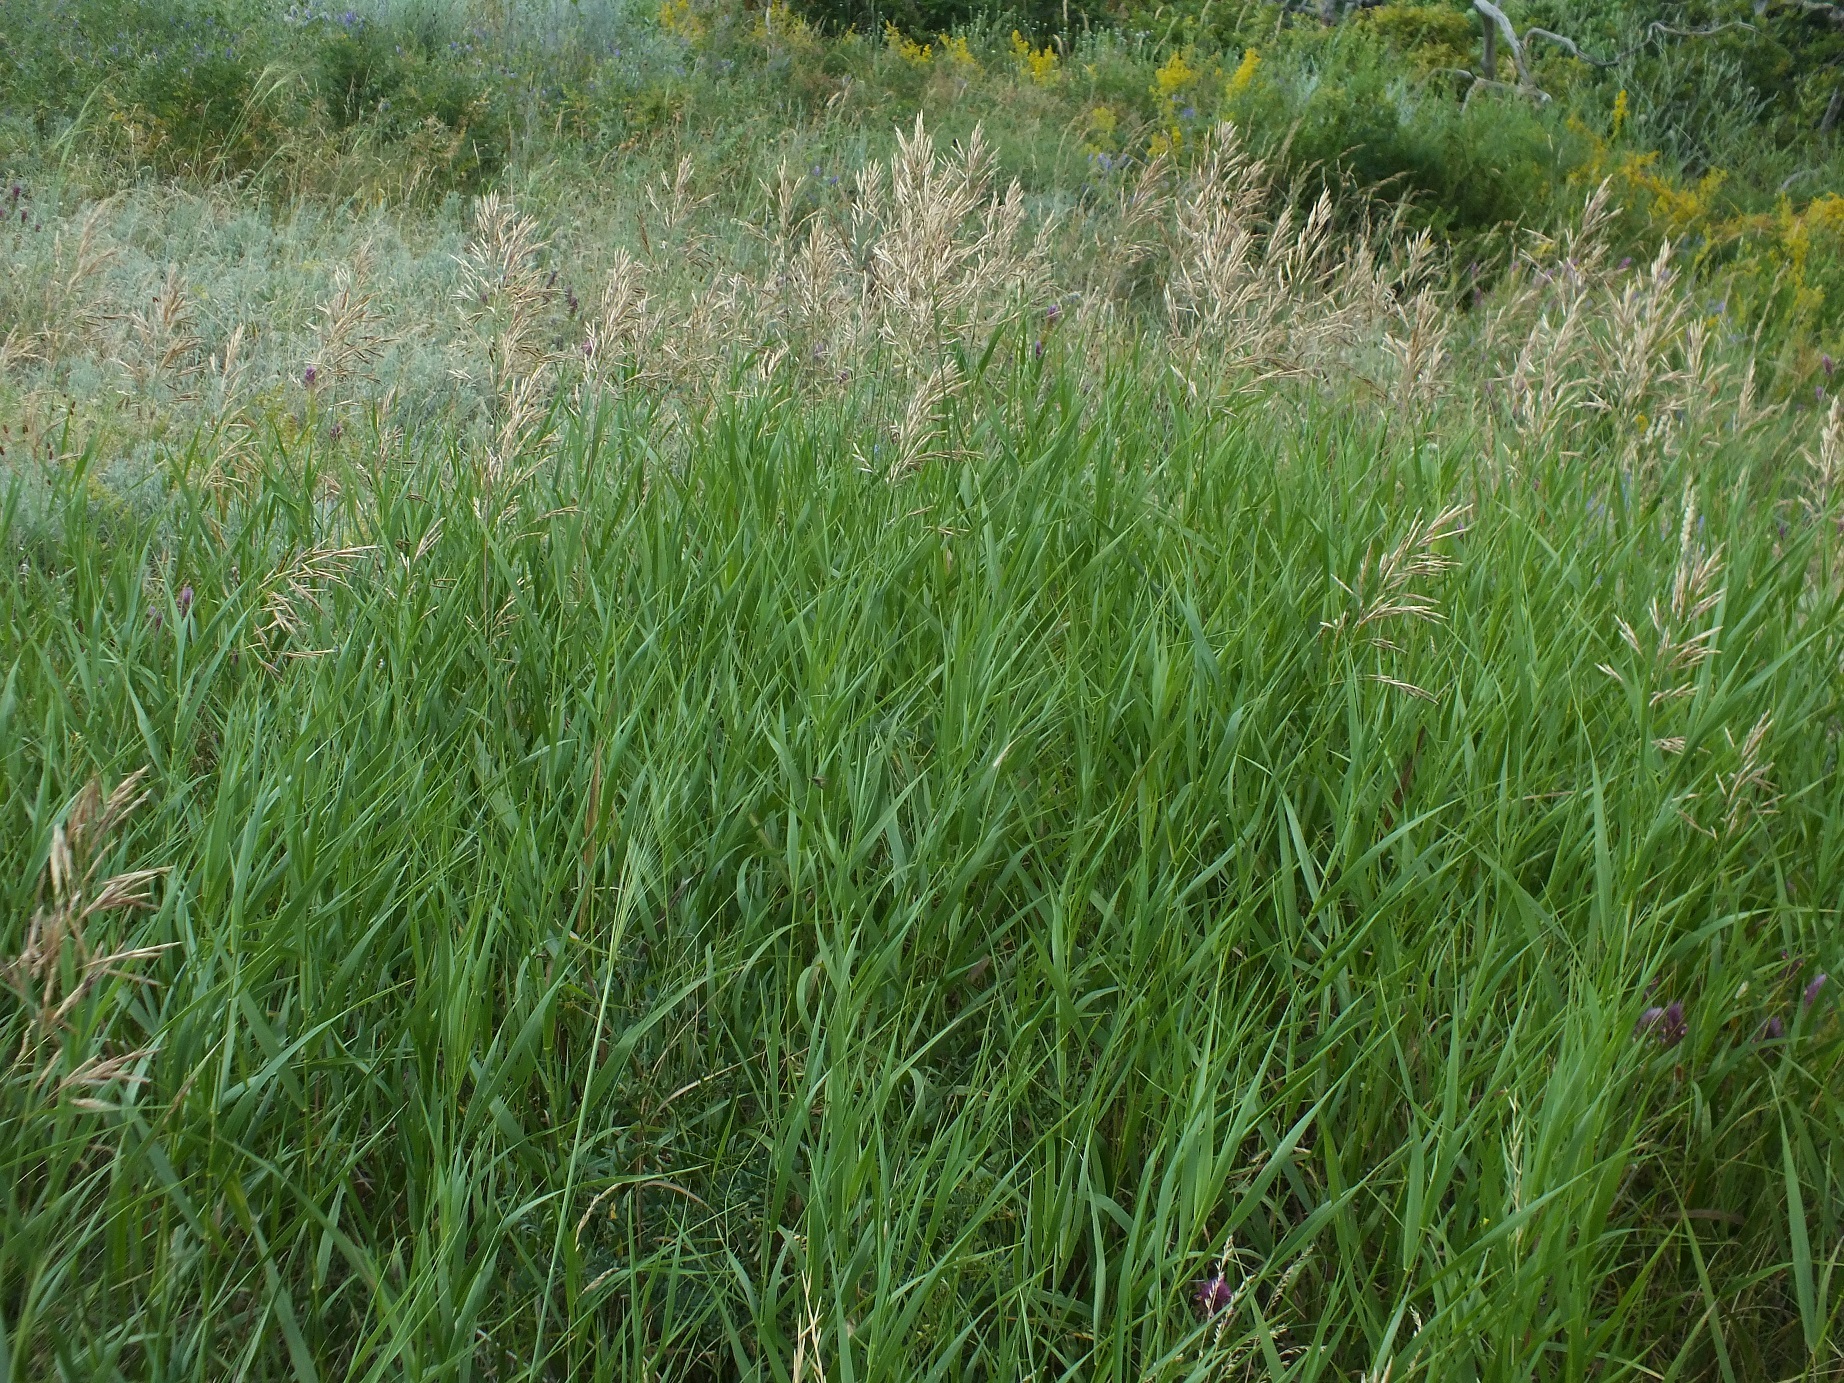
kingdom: Plantae
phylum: Tracheophyta
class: Liliopsida
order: Poales
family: Poaceae
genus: Bromus
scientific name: Bromus inermis
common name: Smooth brome
